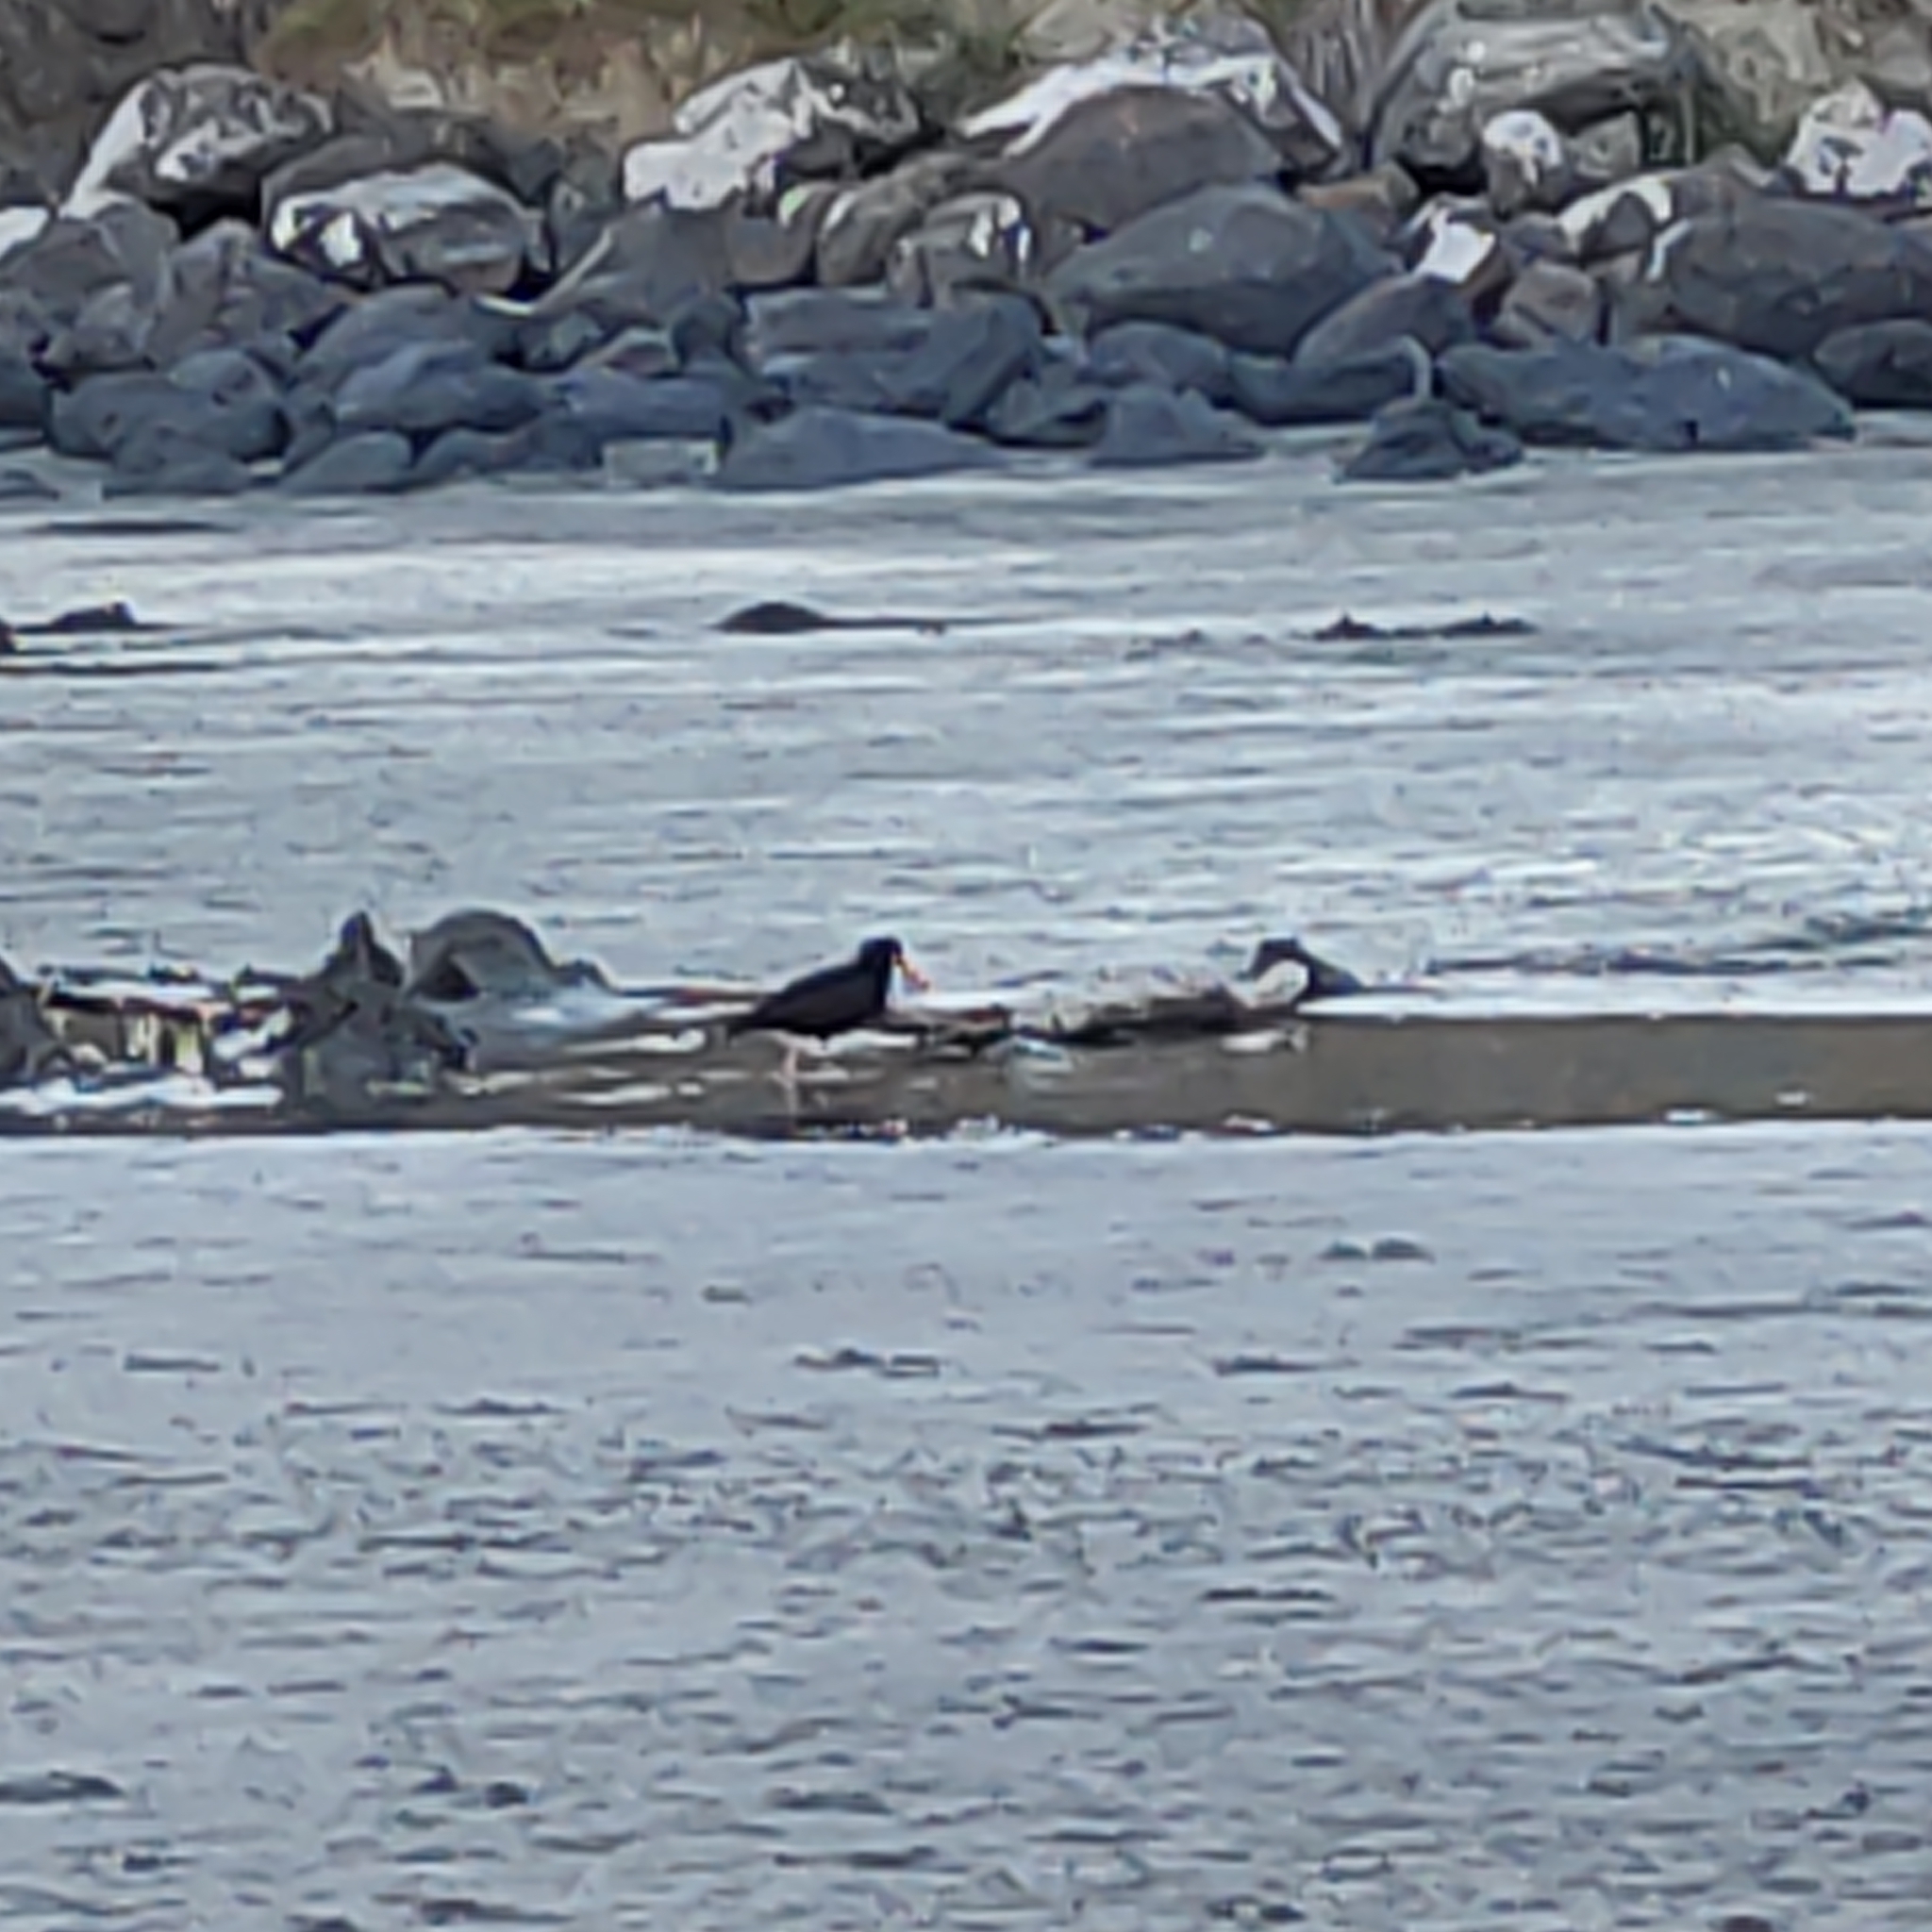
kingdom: Animalia
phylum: Chordata
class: Aves
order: Charadriiformes
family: Haematopodidae
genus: Haematopus
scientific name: Haematopus unicolor
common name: Variable oystercatcher
